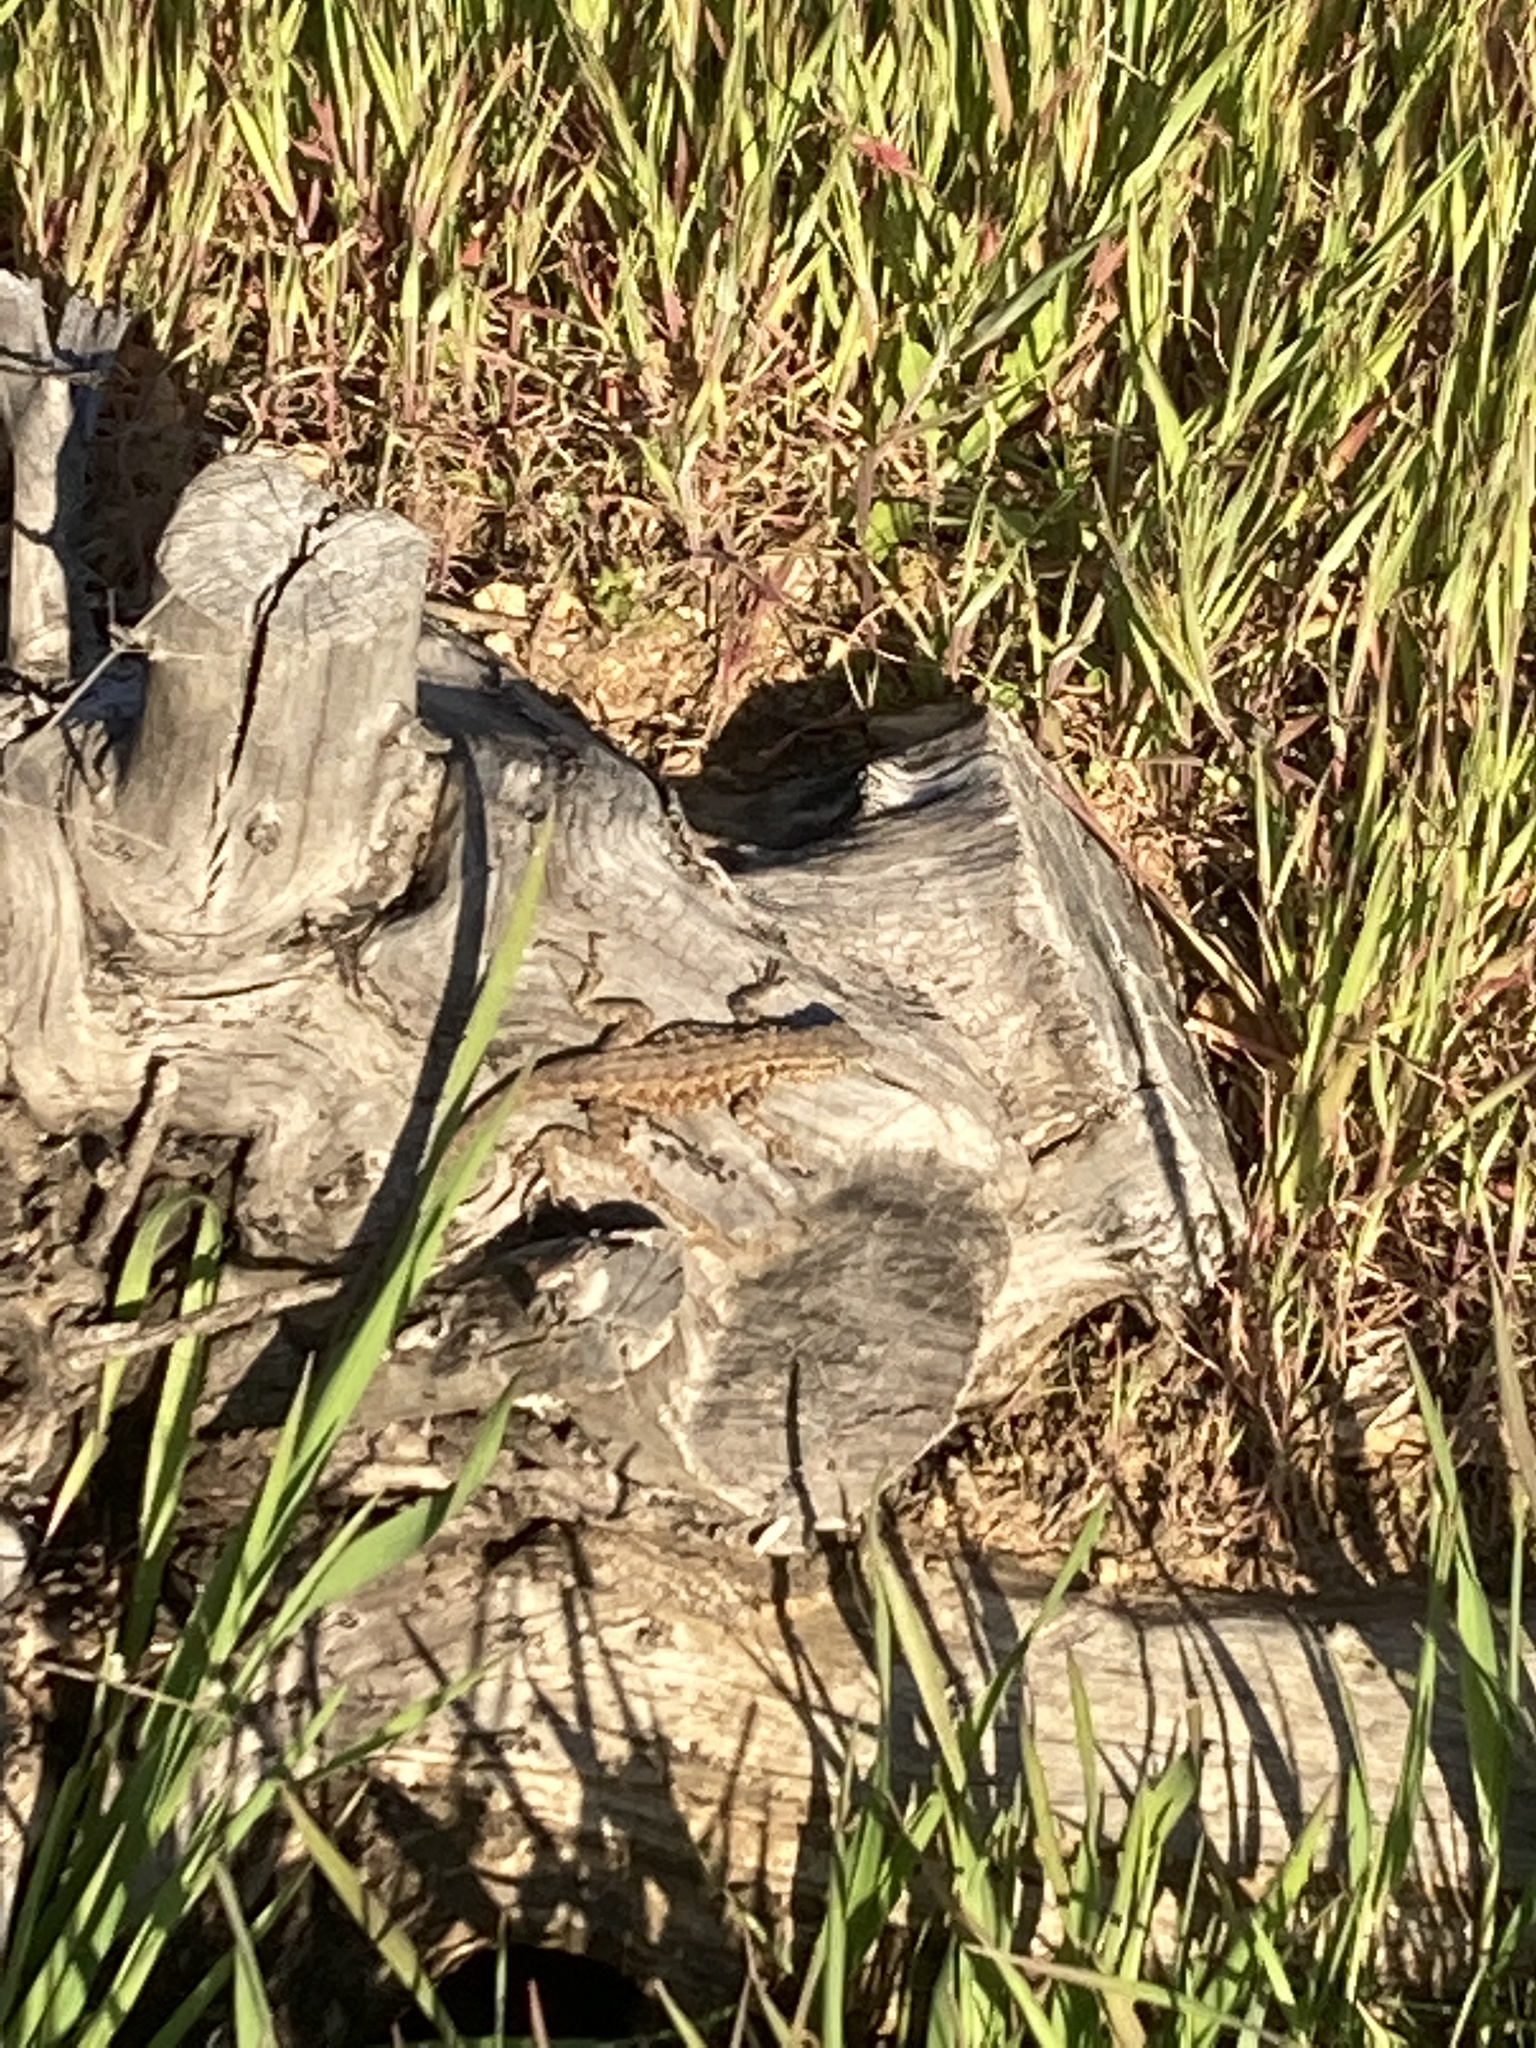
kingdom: Animalia
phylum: Chordata
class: Squamata
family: Phrynosomatidae
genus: Uta
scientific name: Uta stansburiana
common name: Side-blotched lizard
